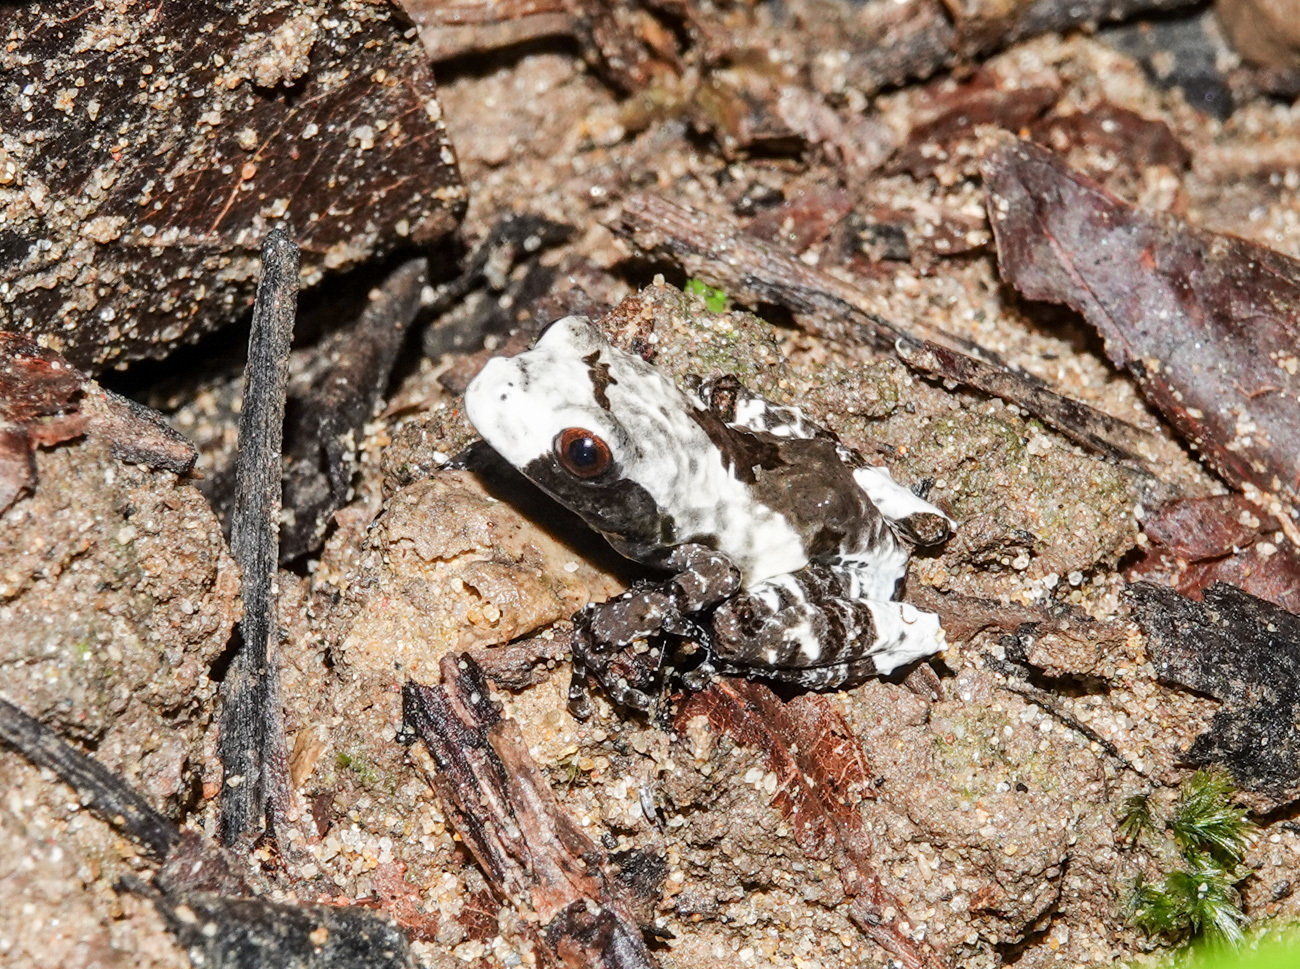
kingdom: Animalia
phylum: Chordata
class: Amphibia
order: Anura
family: Rhacophoridae
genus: Theloderma
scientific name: Theloderma baibungense
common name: Baibung small treefrog
